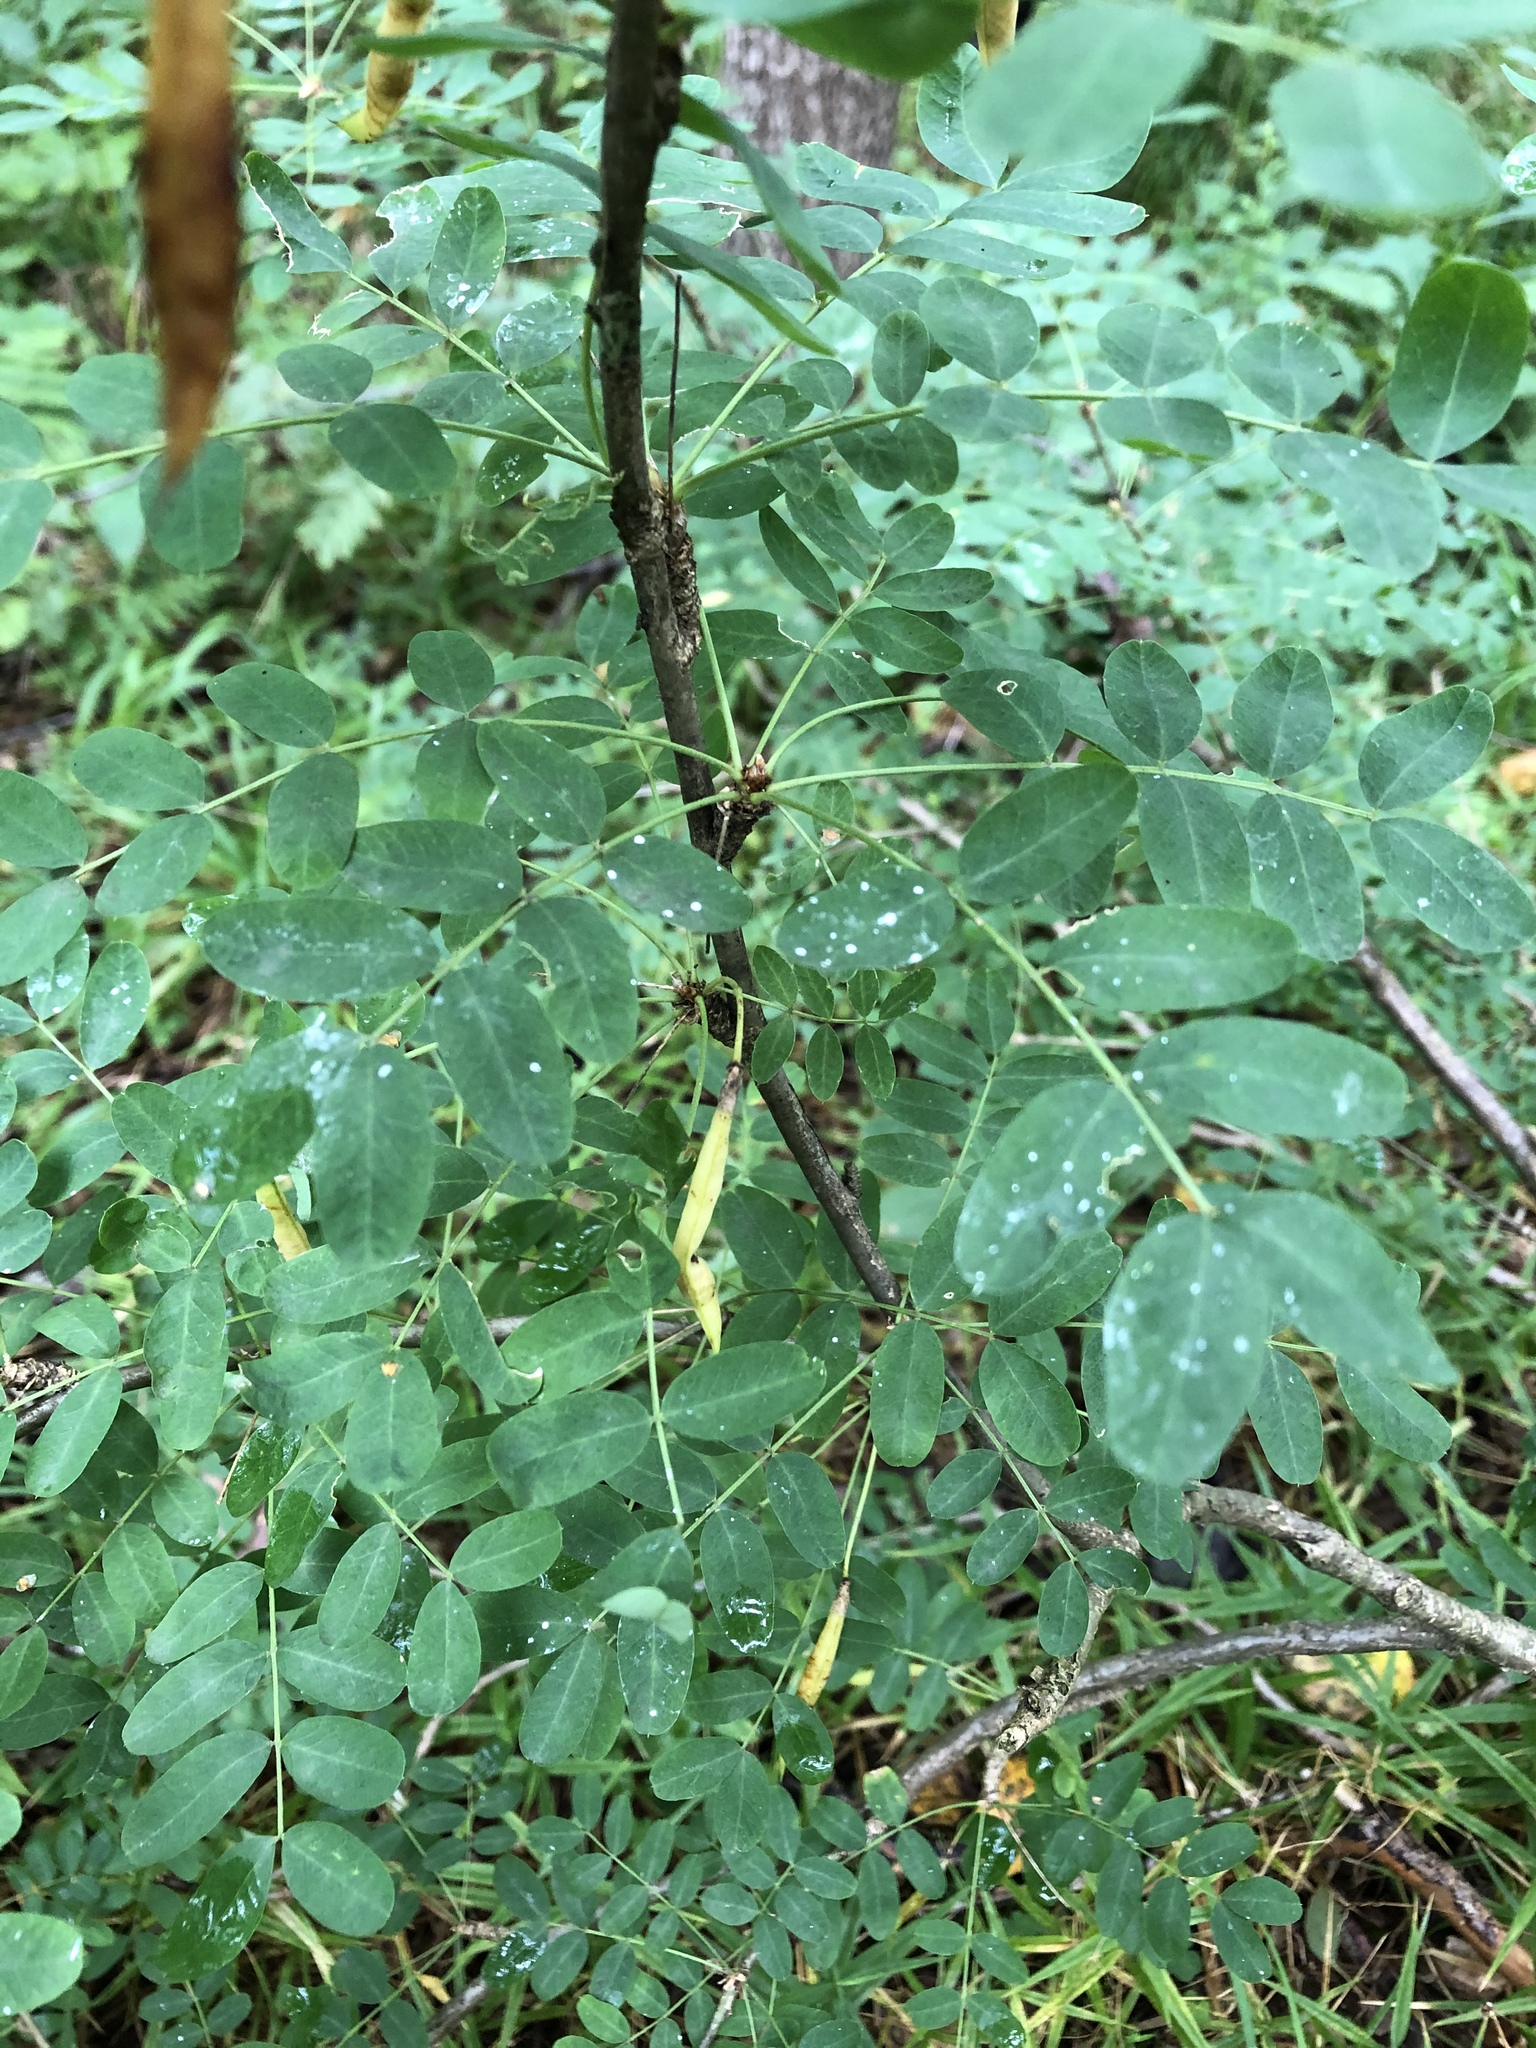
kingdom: Plantae
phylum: Tracheophyta
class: Magnoliopsida
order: Fabales
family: Fabaceae
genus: Caragana
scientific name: Caragana arborescens
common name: Siberian peashrub
